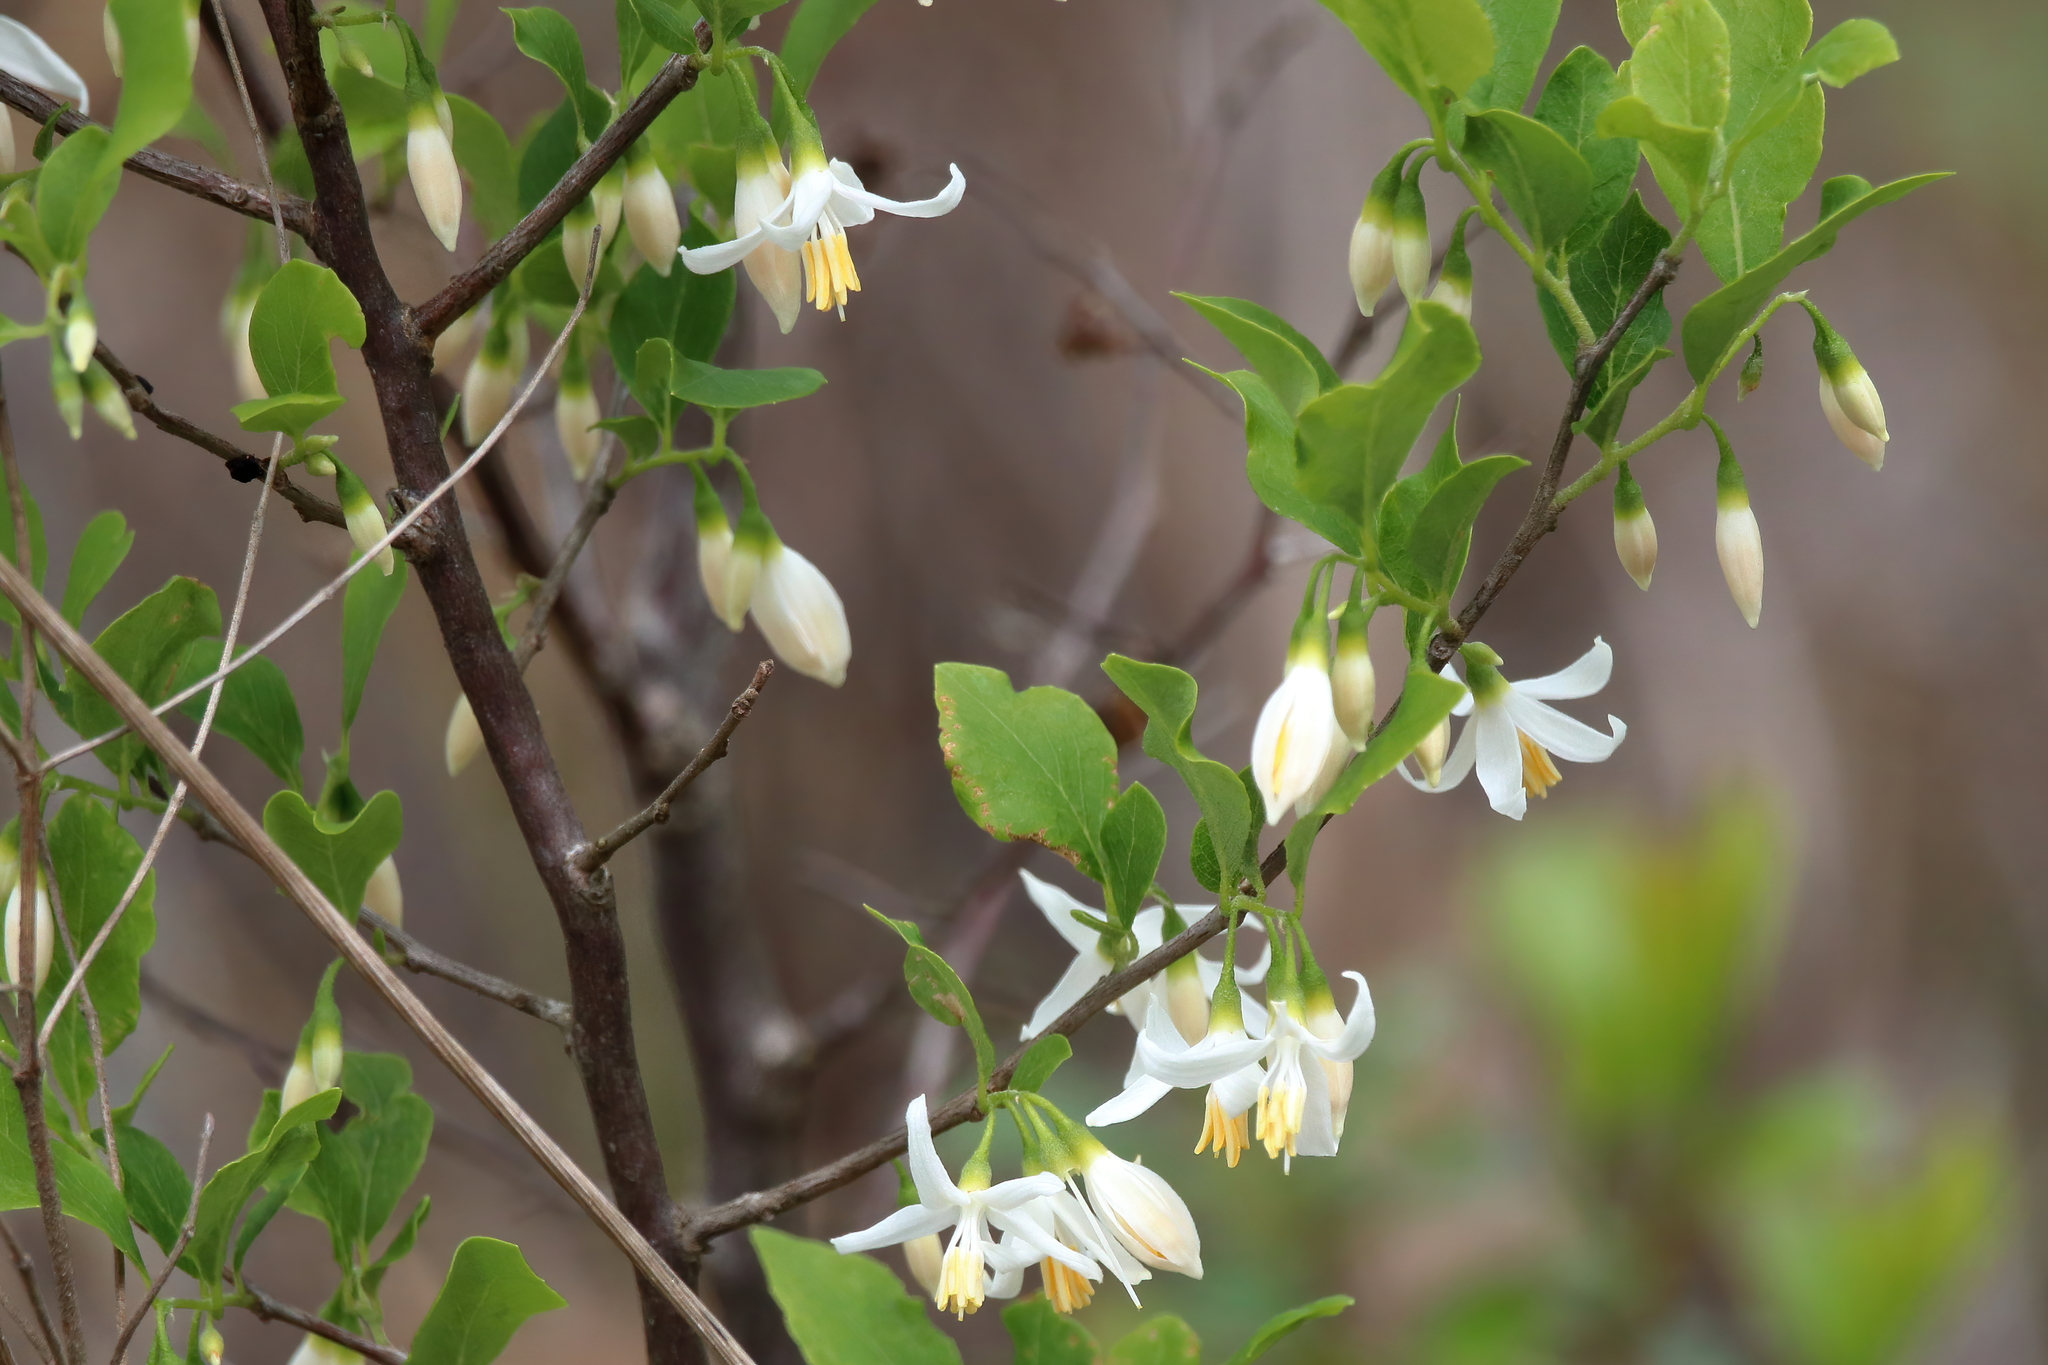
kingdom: Plantae
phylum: Tracheophyta
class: Magnoliopsida
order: Ericales
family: Styracaceae
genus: Styrax
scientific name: Styrax americanus
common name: American snowbell
